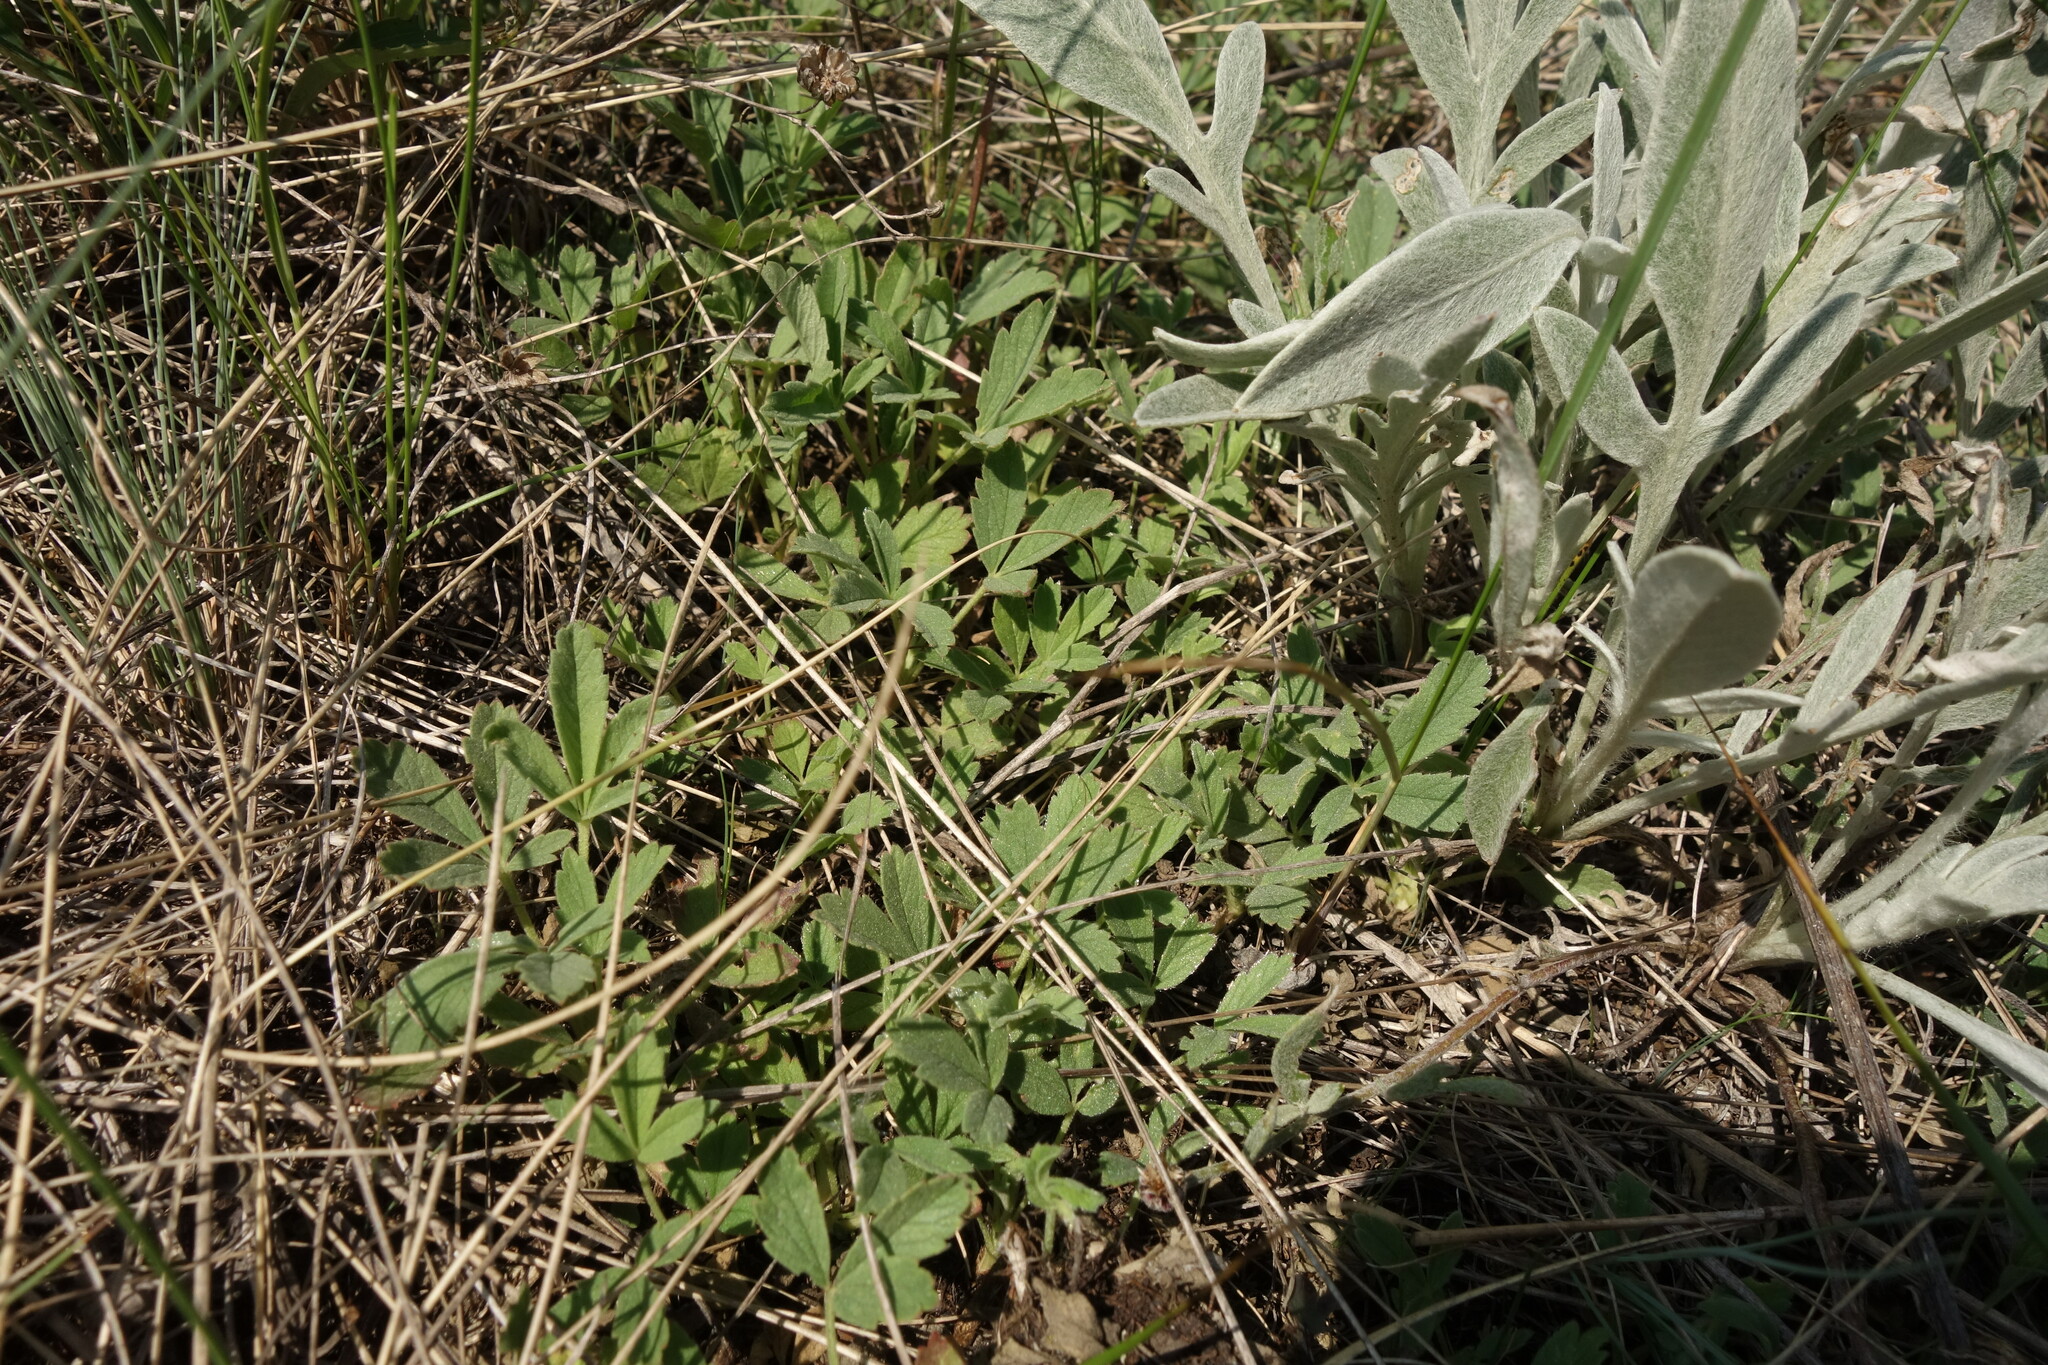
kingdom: Plantae
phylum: Tracheophyta
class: Magnoliopsida
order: Rosales
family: Rosaceae
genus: Potentilla
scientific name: Potentilla incana
